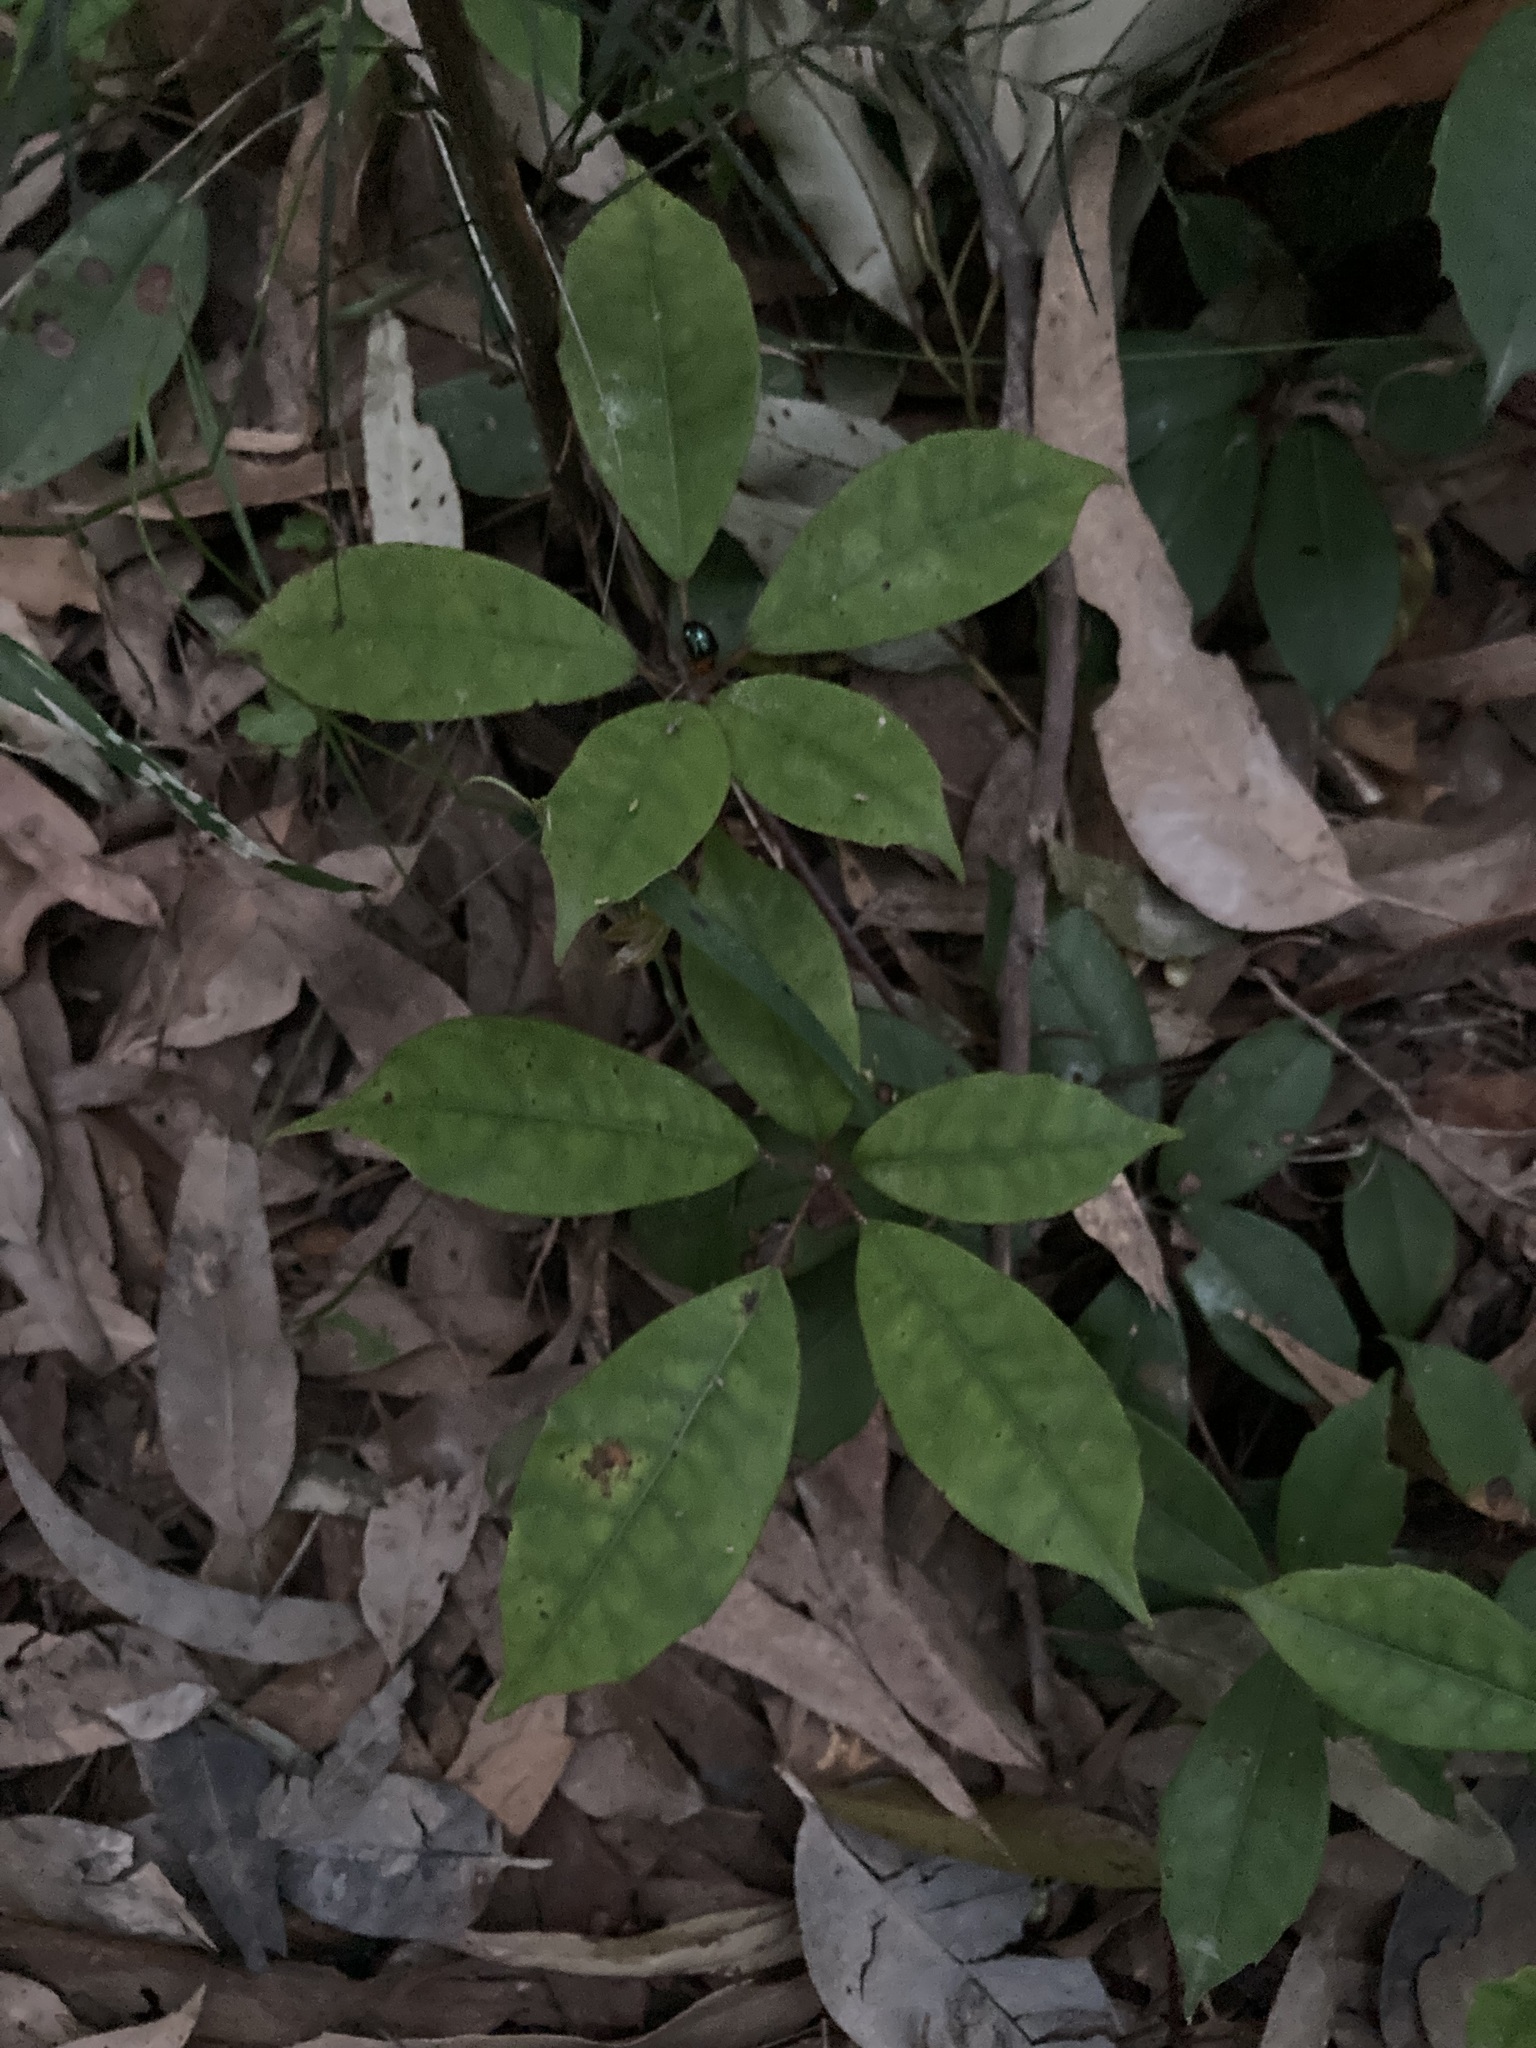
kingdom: Plantae
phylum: Tracheophyta
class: Magnoliopsida
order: Vitales
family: Vitaceae
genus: Nothocissus
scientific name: Nothocissus hypoglauca
